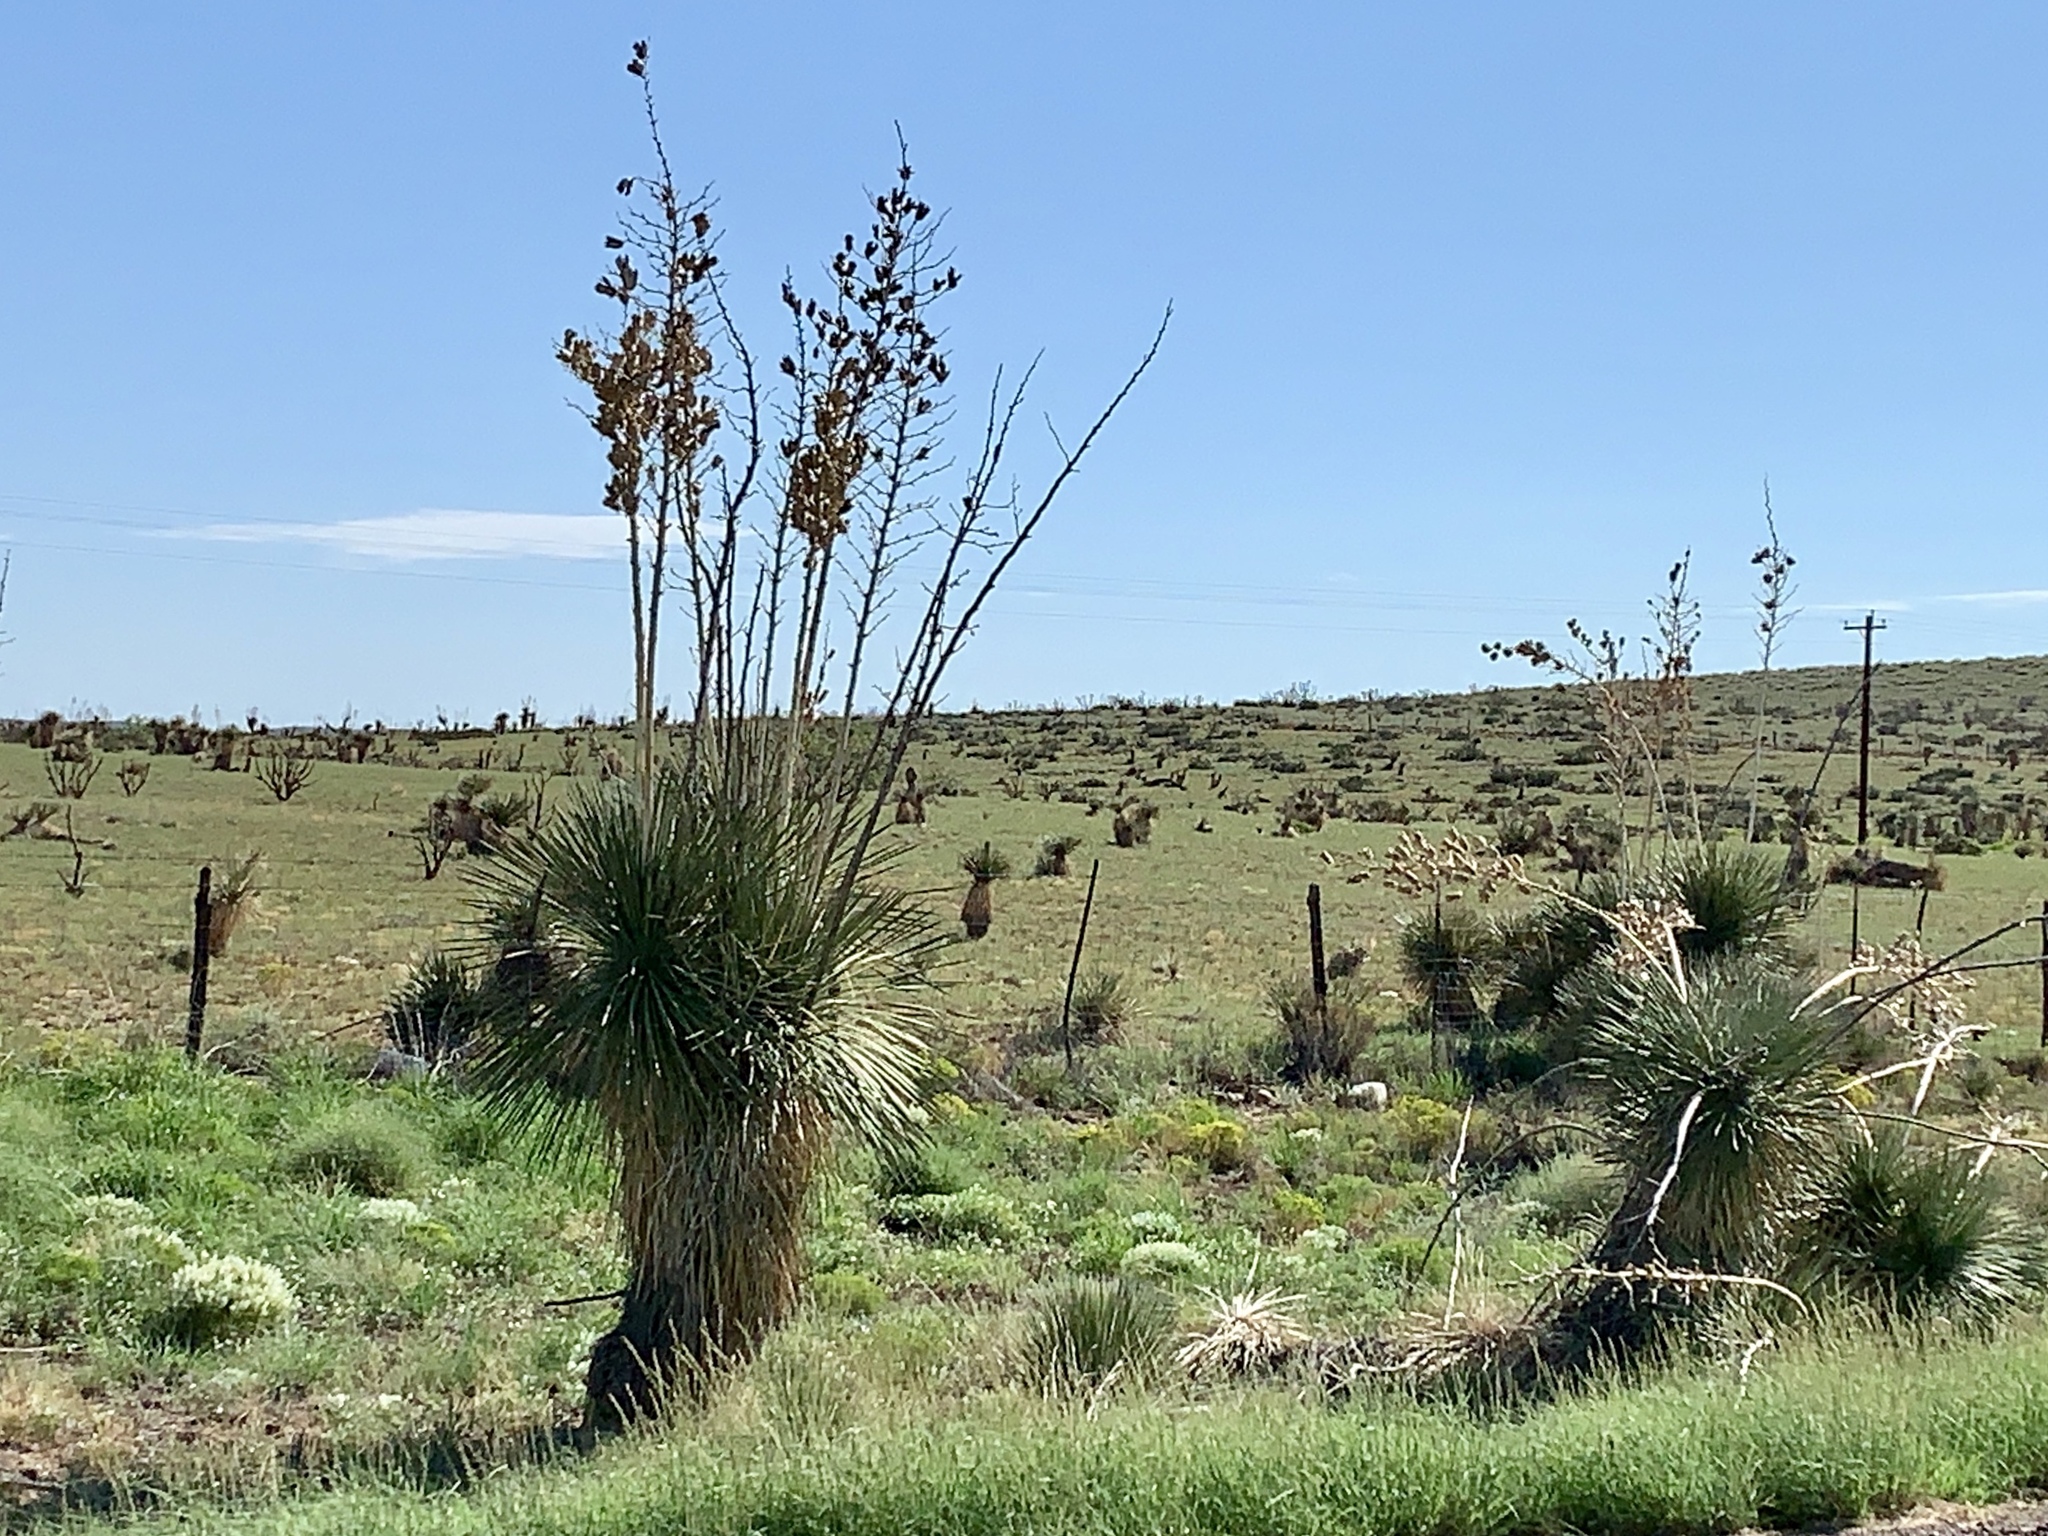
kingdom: Plantae
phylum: Tracheophyta
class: Liliopsida
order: Asparagales
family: Asparagaceae
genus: Yucca
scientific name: Yucca elata
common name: Palmella
